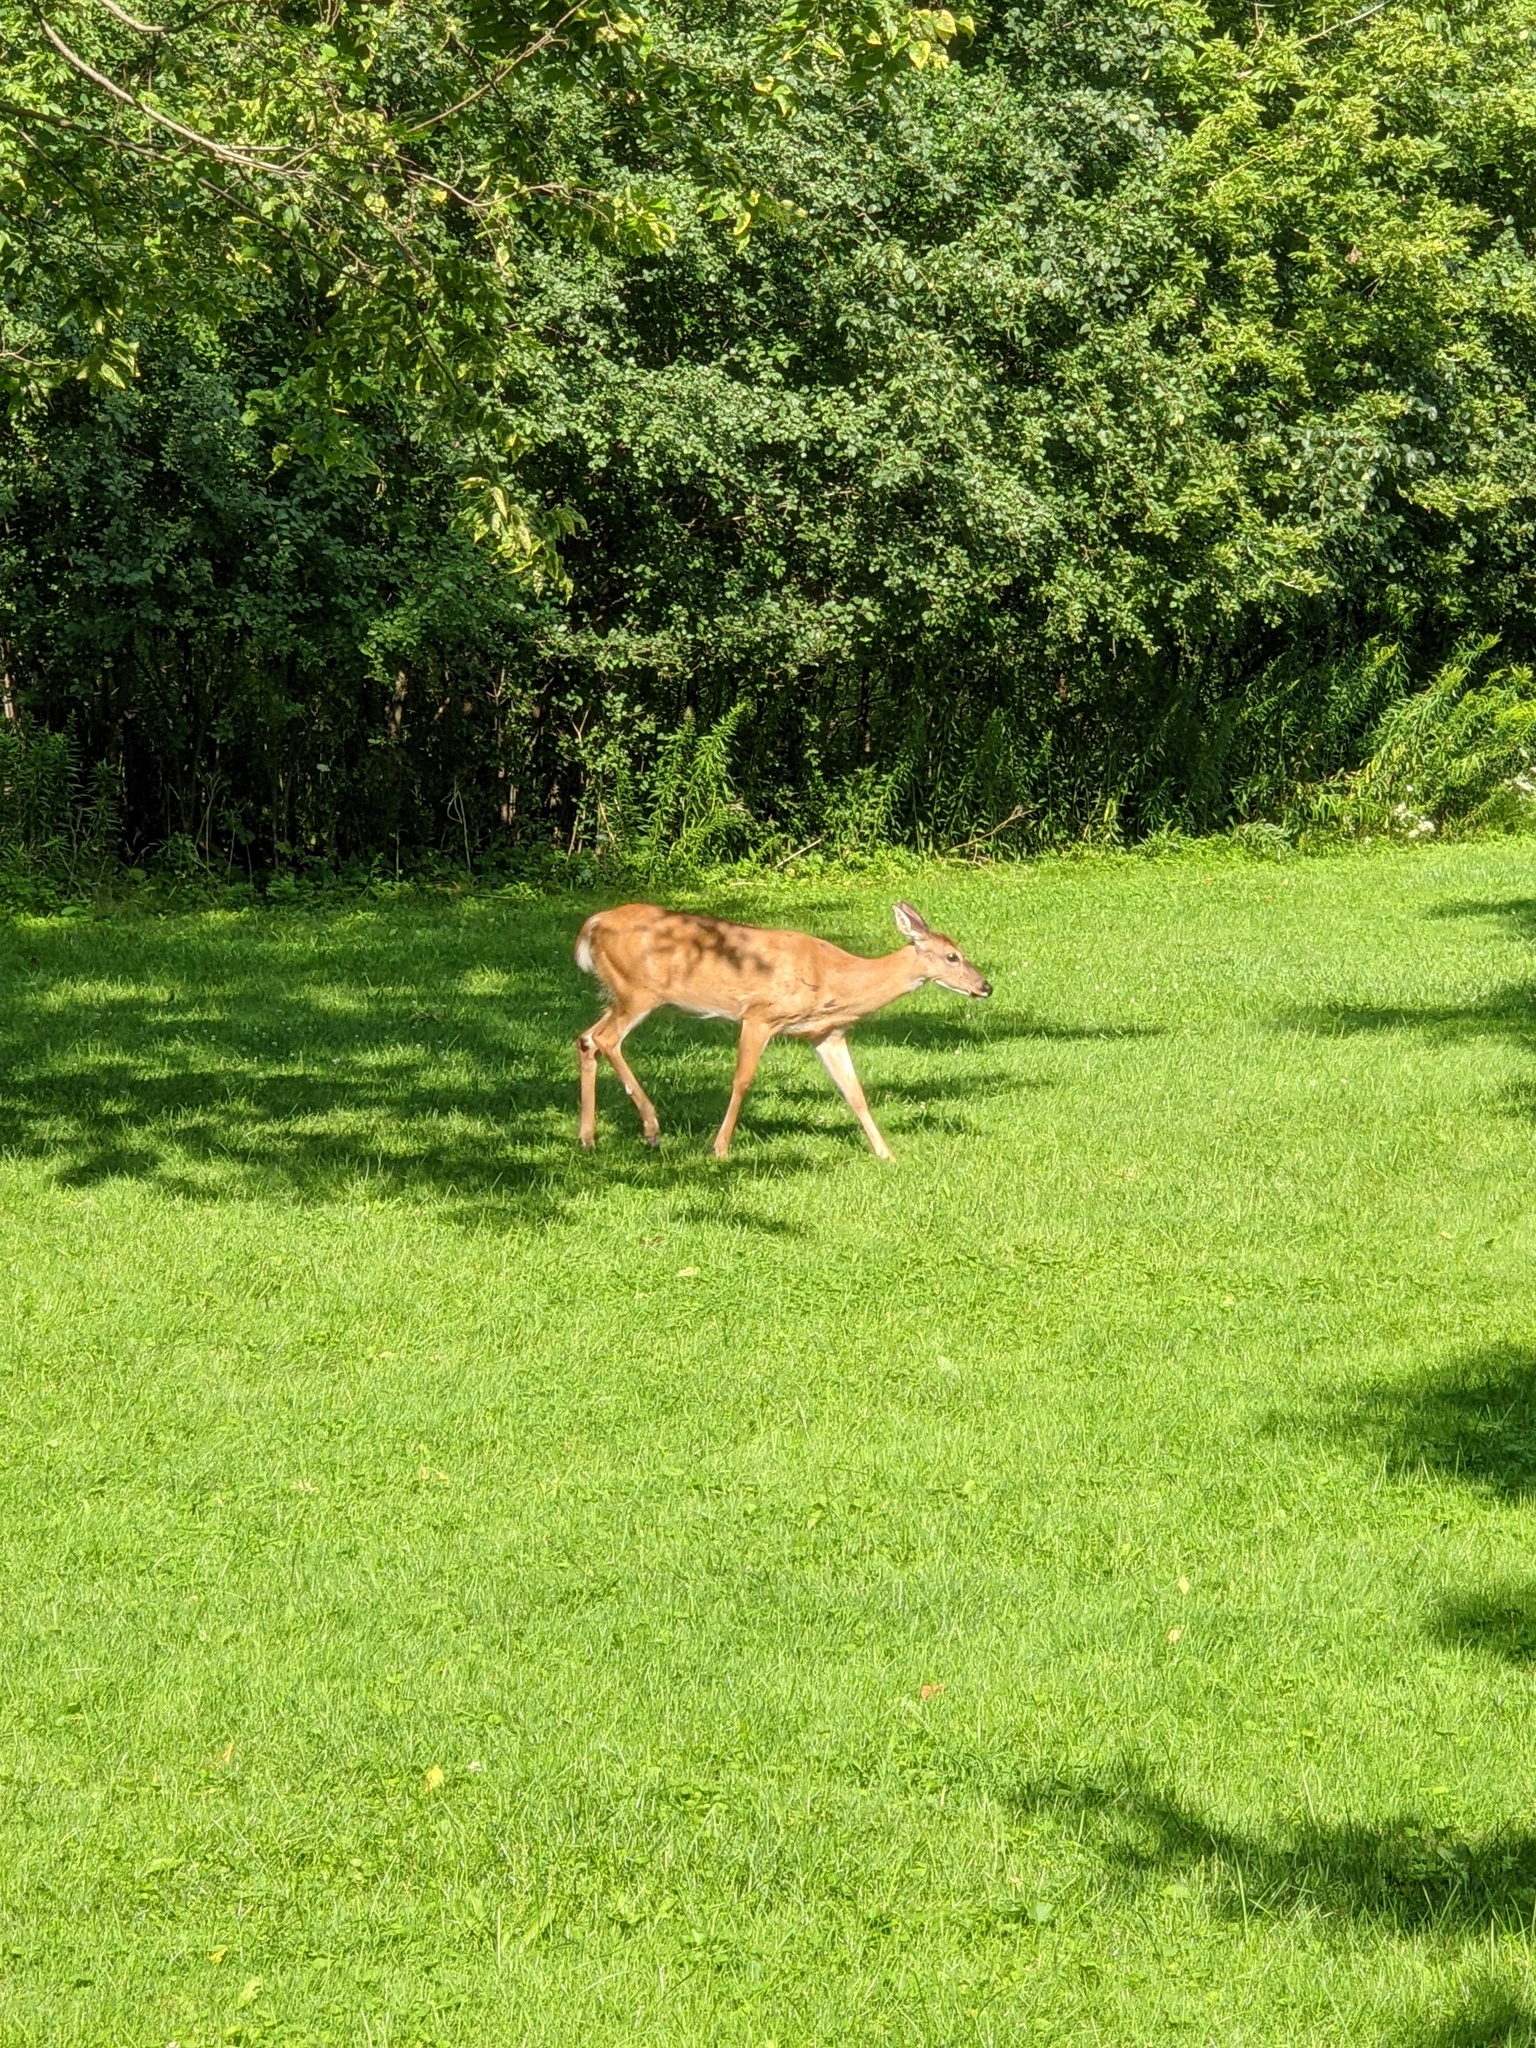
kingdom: Animalia
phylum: Chordata
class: Mammalia
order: Artiodactyla
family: Cervidae
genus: Odocoileus
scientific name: Odocoileus virginianus
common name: White-tailed deer
